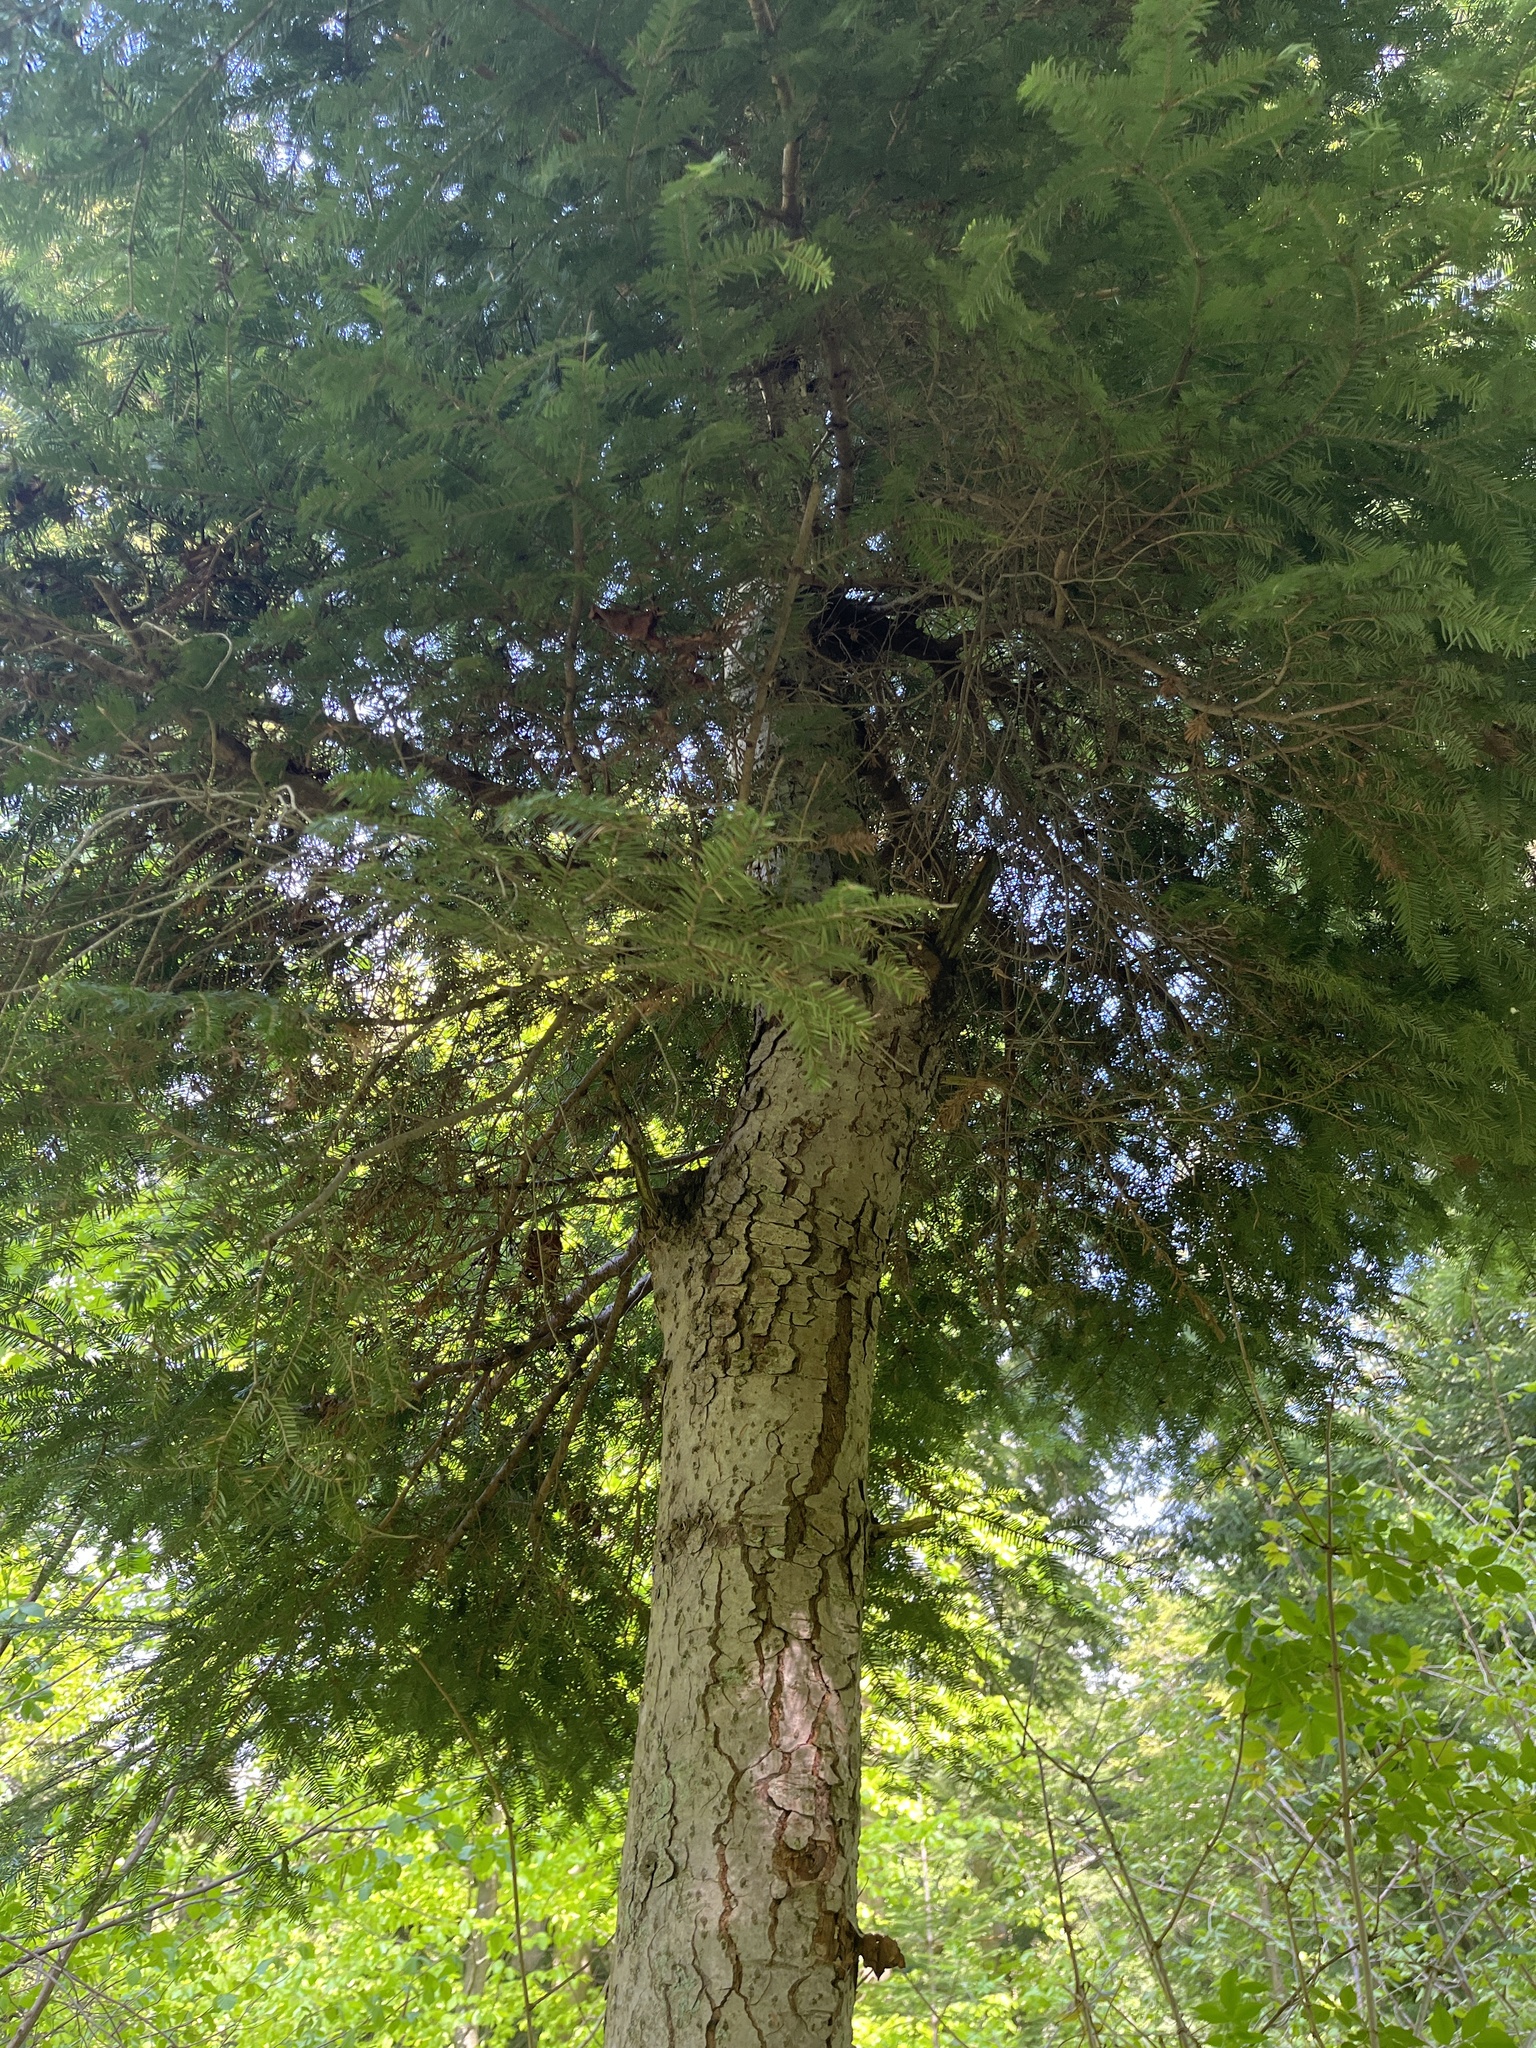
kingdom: Plantae
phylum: Tracheophyta
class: Pinopsida
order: Pinales
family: Pinaceae
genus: Tsuga
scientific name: Tsuga canadensis
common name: Eastern hemlock
